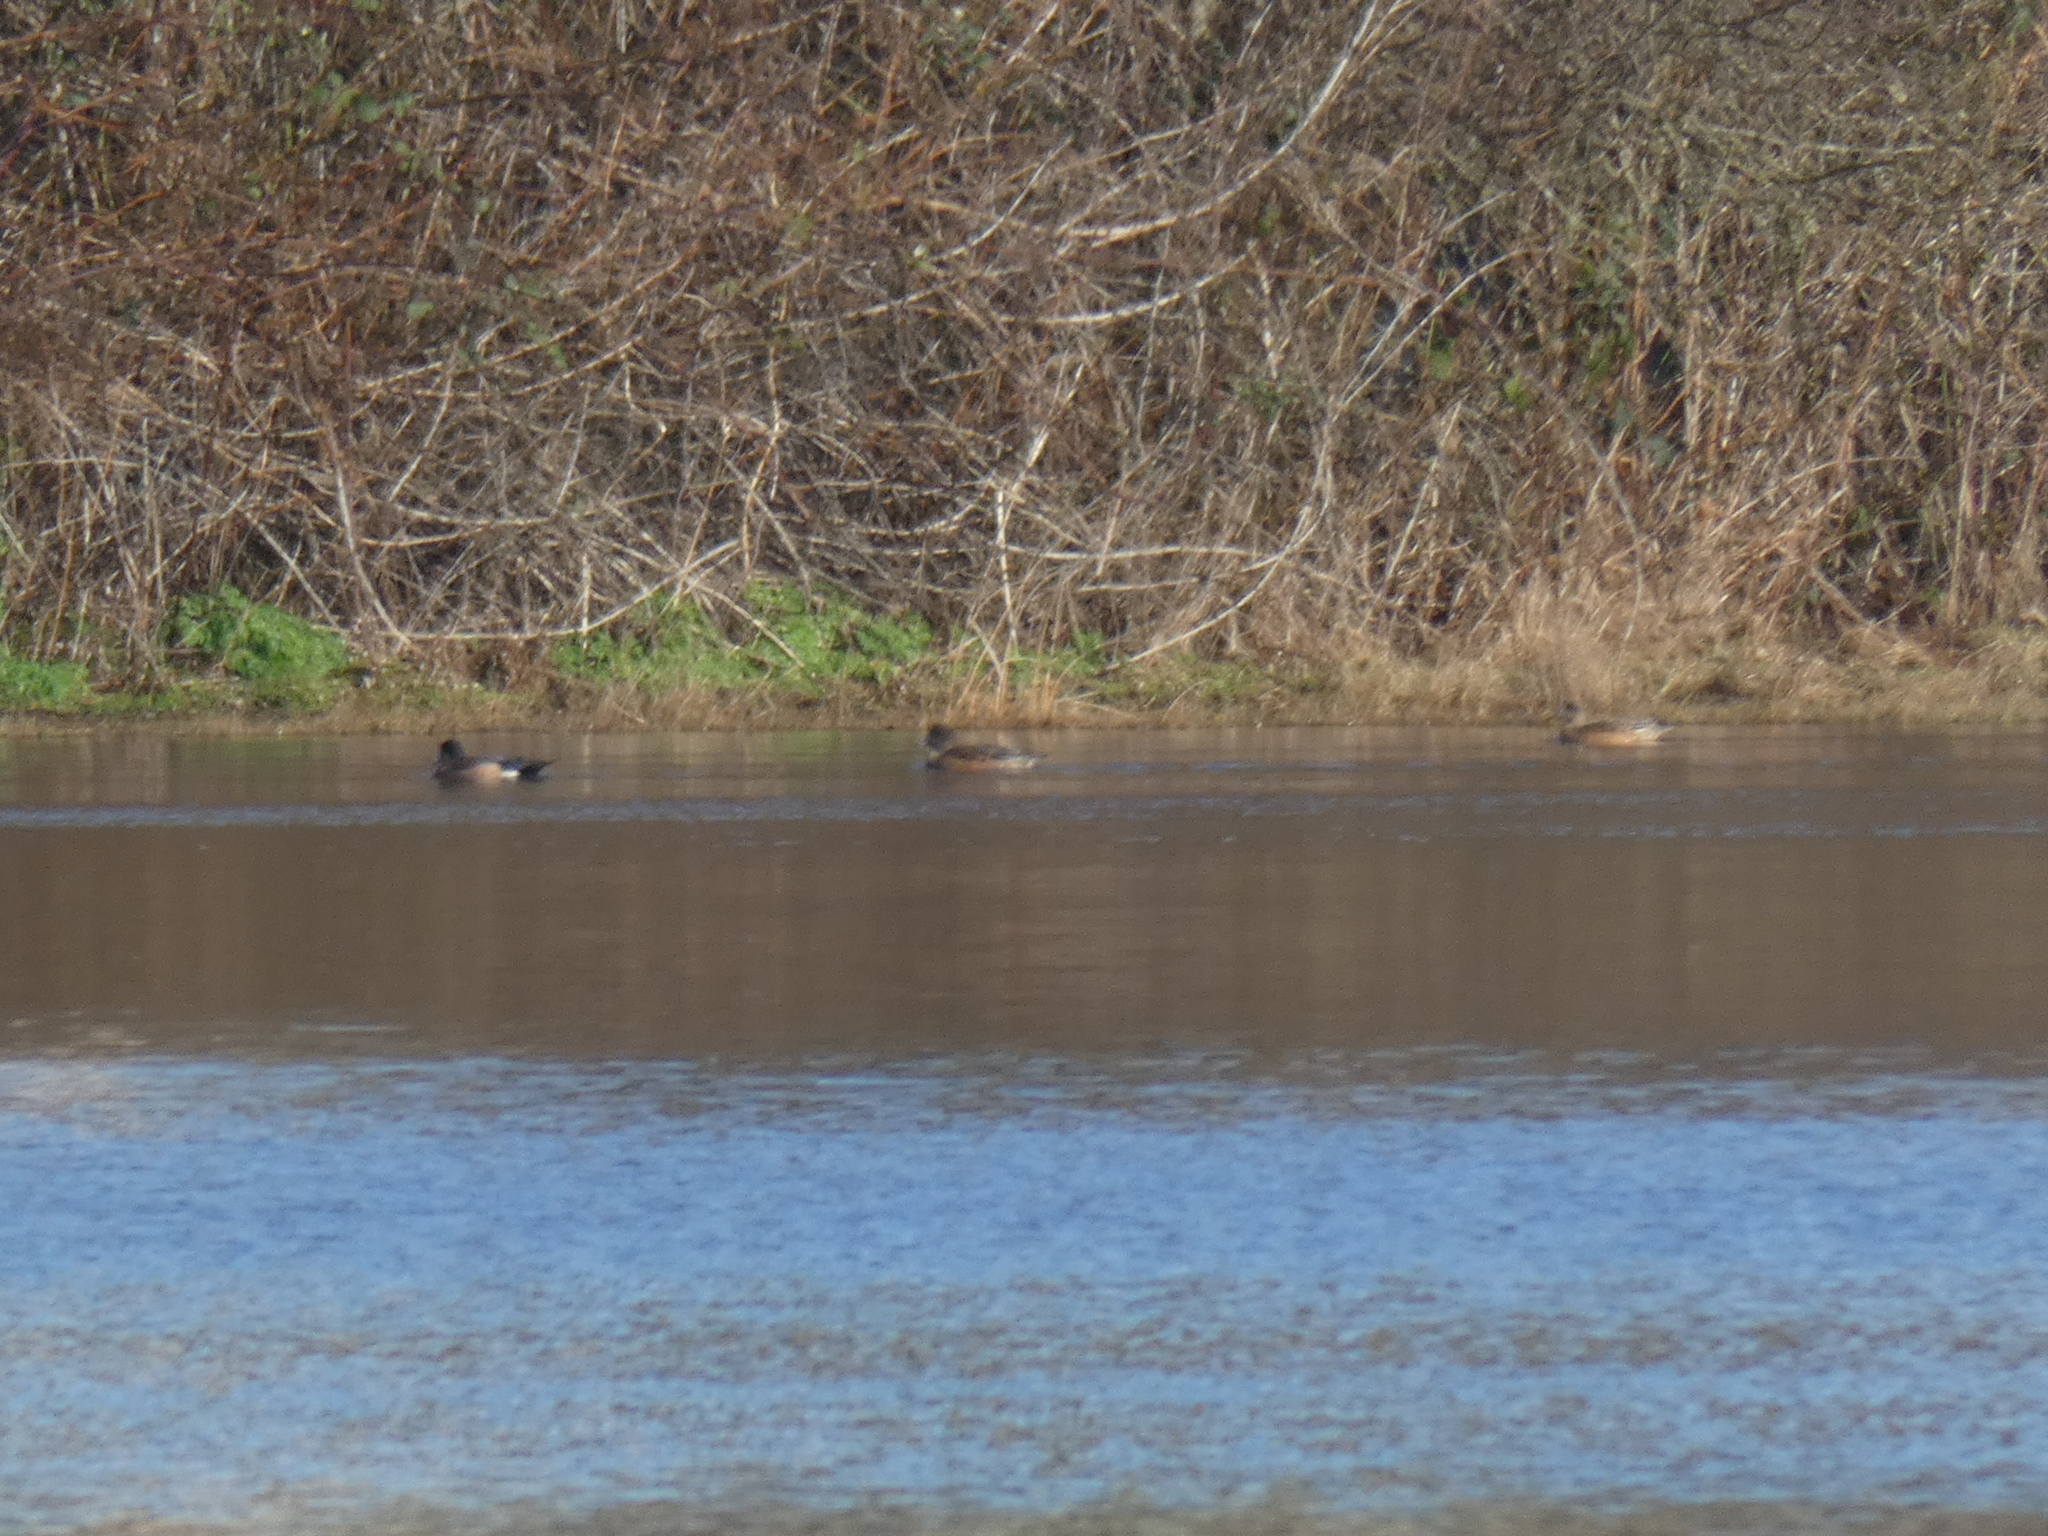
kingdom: Animalia
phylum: Chordata
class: Aves
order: Anseriformes
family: Anatidae
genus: Mareca
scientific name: Mareca americana
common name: American wigeon
